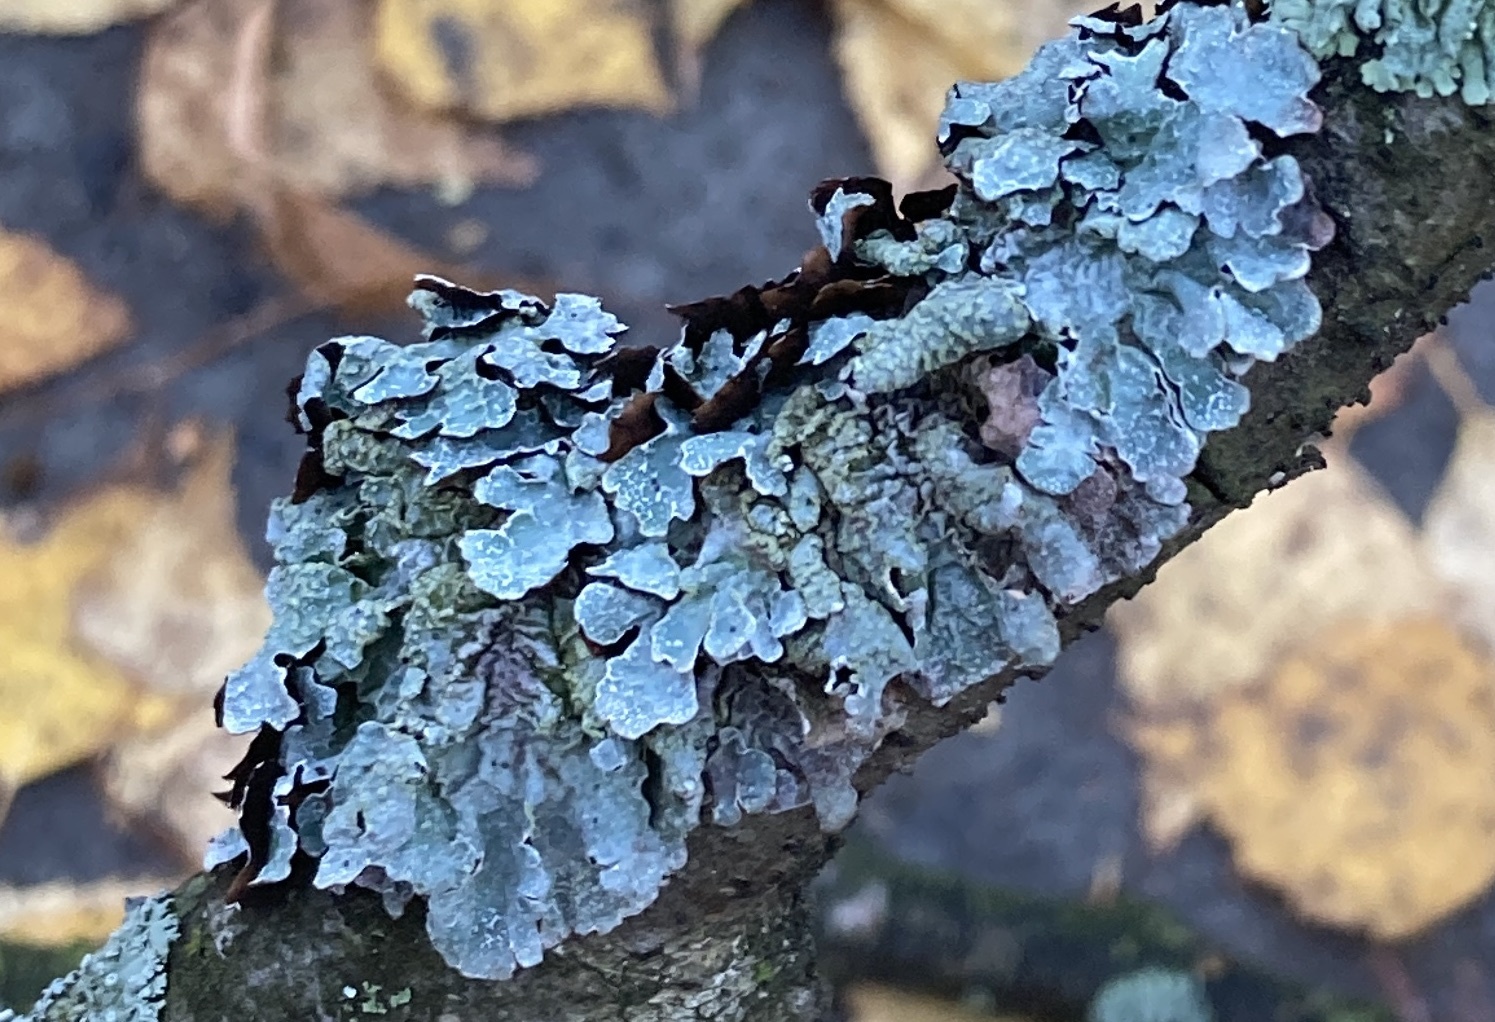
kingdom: Fungi
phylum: Ascomycota
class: Lecanoromycetes
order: Lecanorales
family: Parmeliaceae
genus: Parmelia
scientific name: Parmelia sulcata
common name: Netted shield lichen
